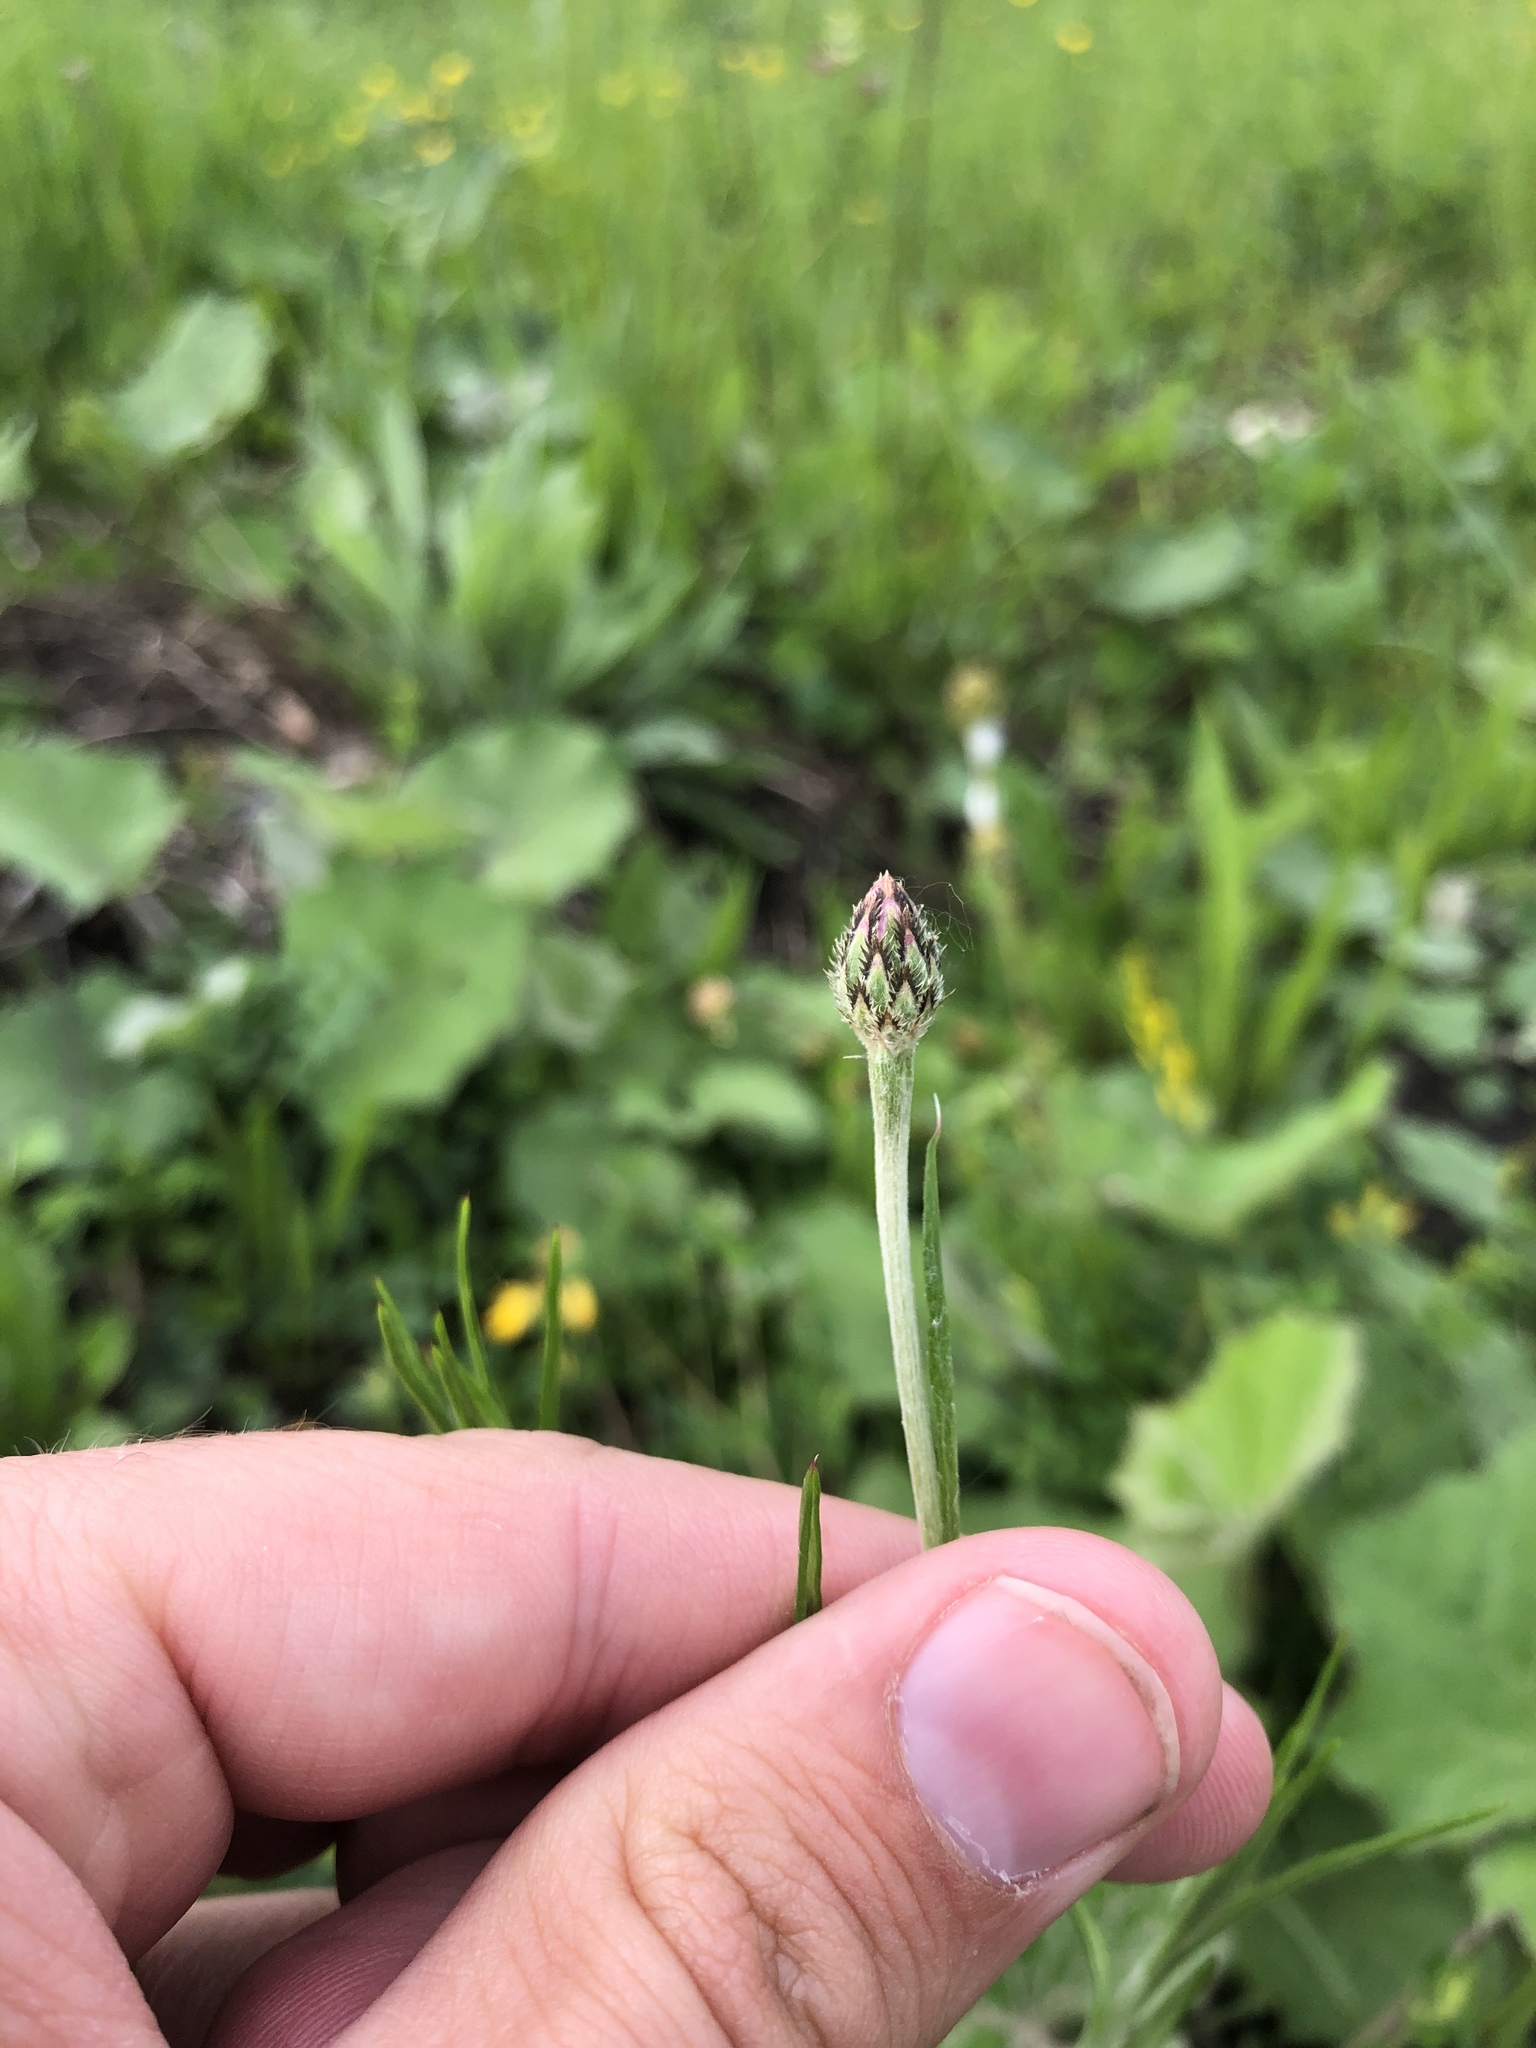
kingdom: Plantae
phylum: Tracheophyta
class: Magnoliopsida
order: Asterales
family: Asteraceae
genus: Centaurea
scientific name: Centaurea cyanus
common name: Cornflower
